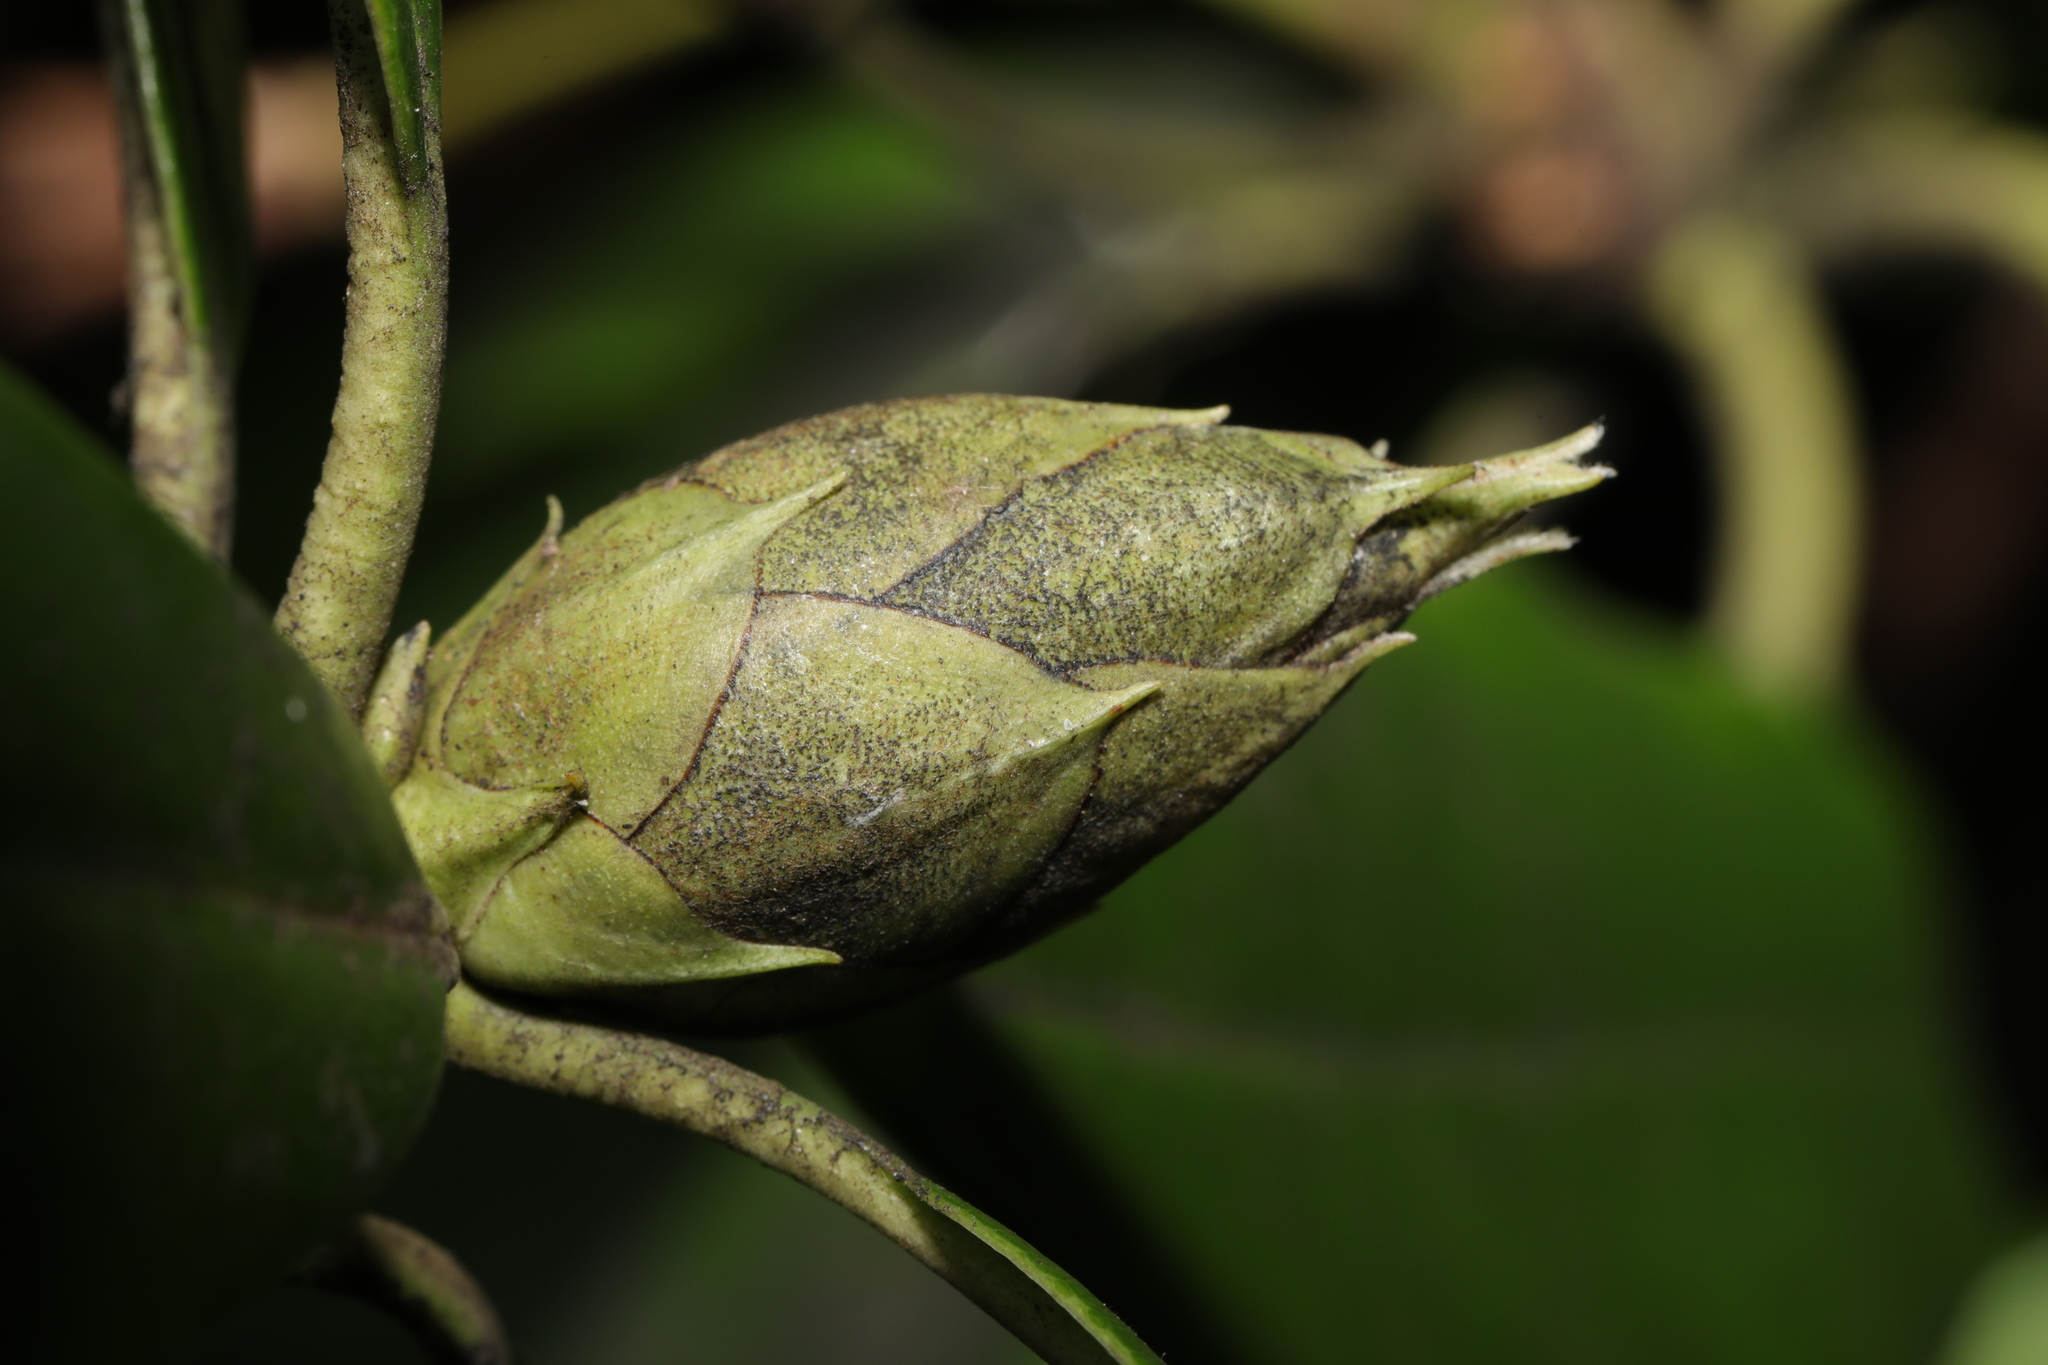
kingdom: Fungi
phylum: Ascomycota
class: Dothideomycetes
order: Pleosporales
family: Melanommataceae
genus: Seifertia
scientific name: Seifertia azaleae
